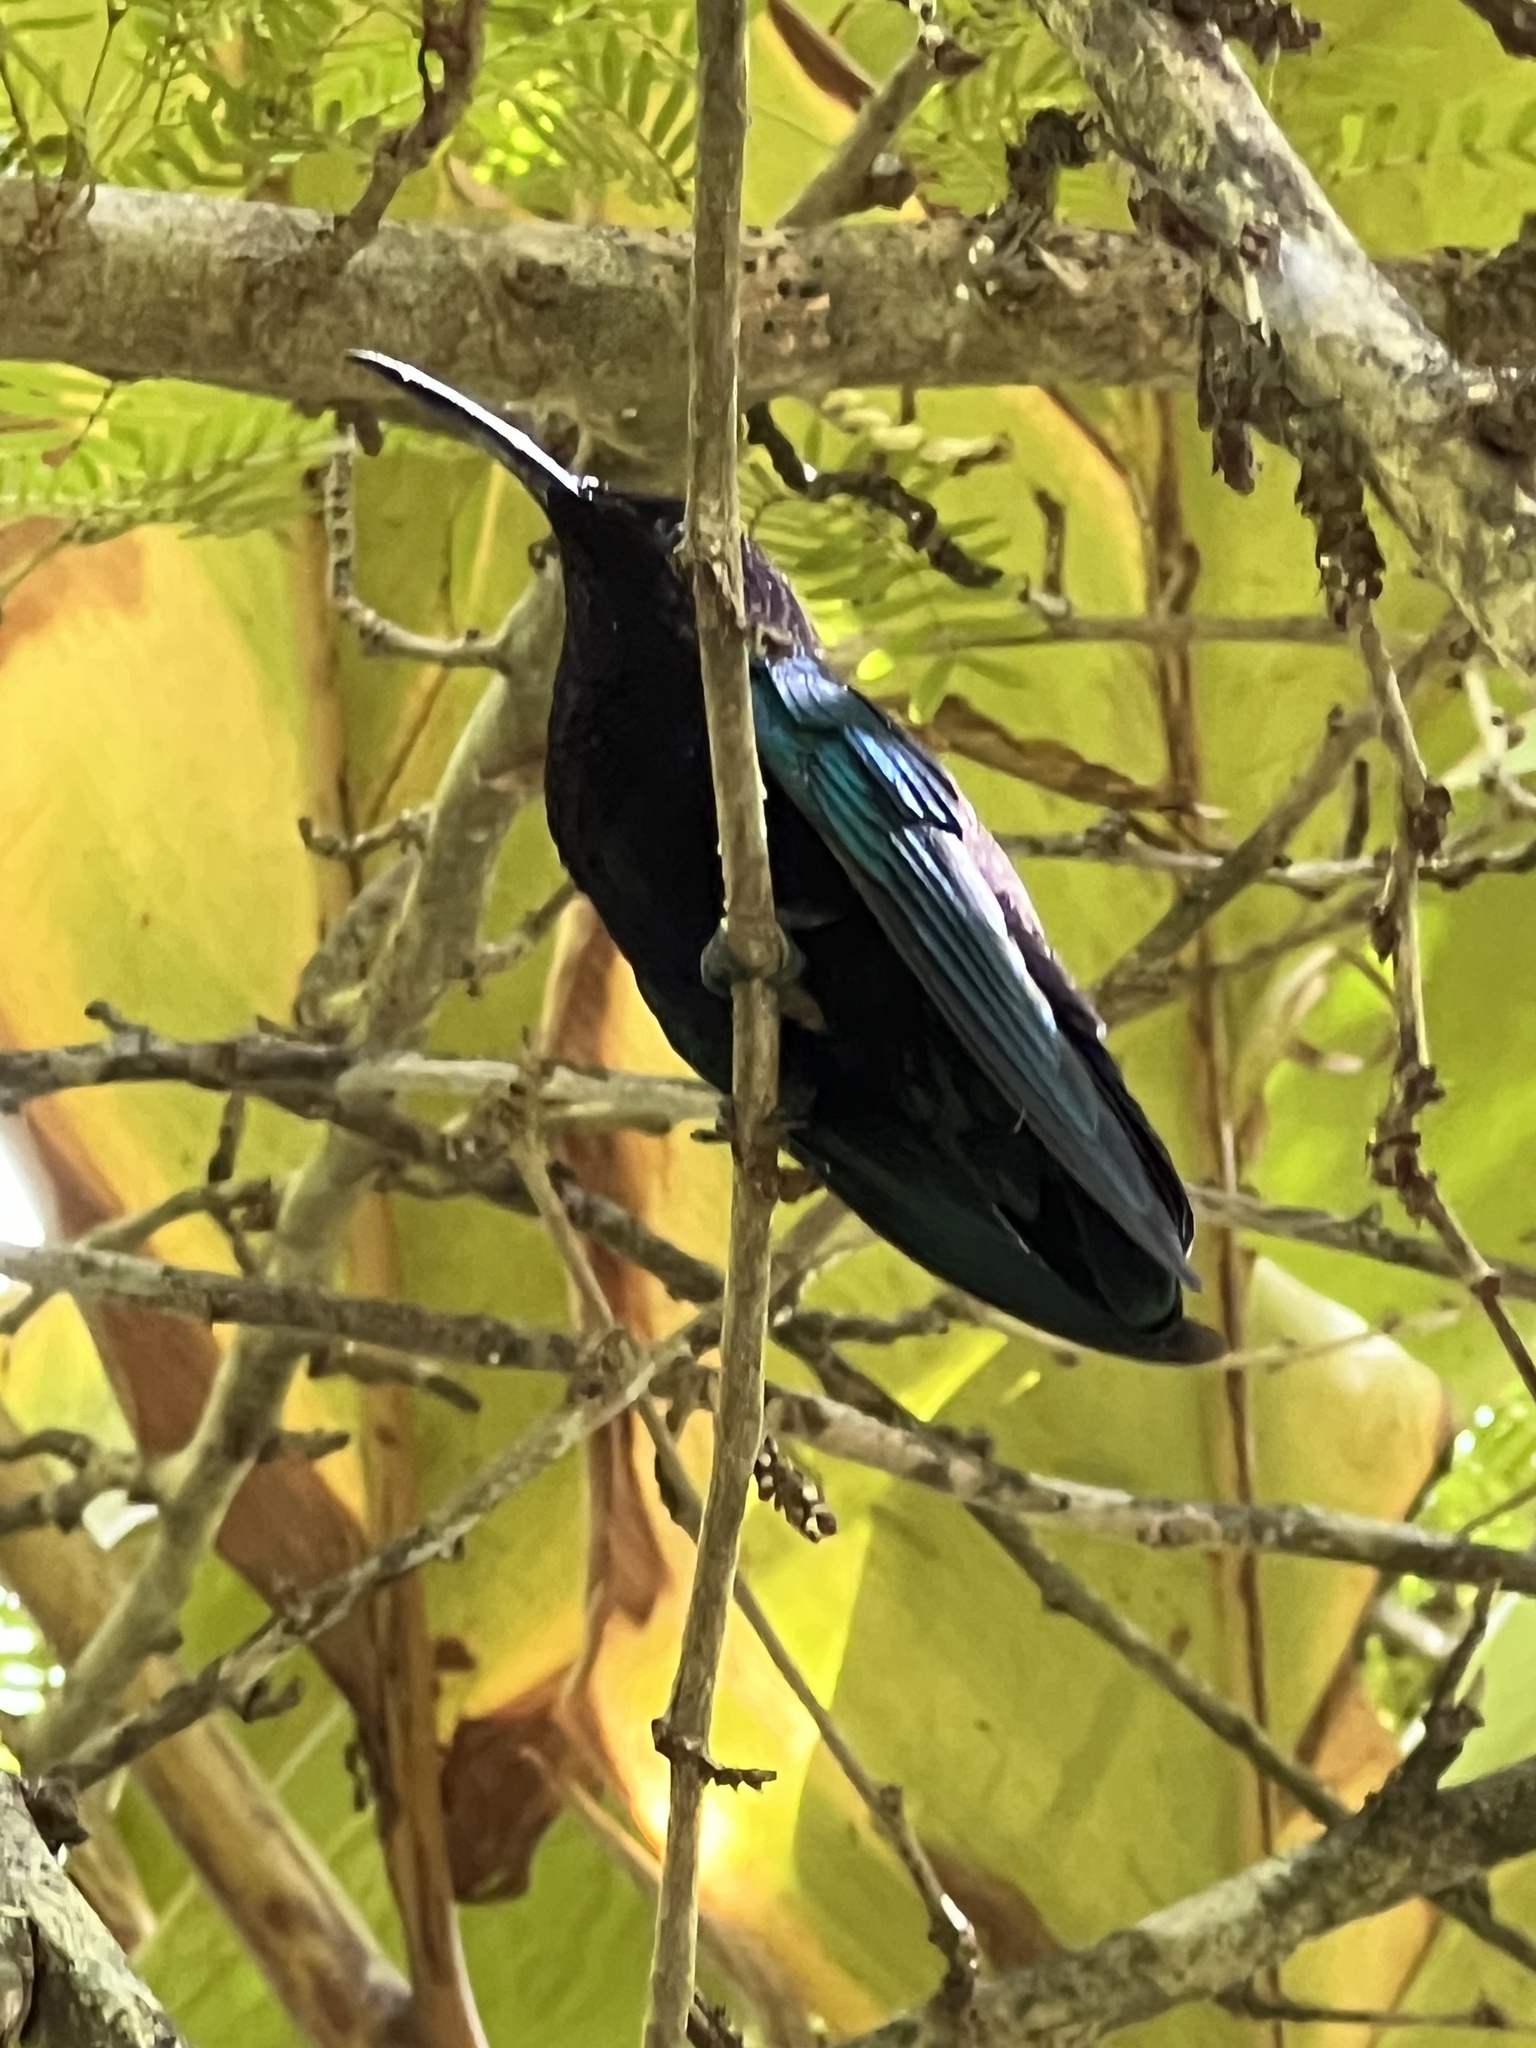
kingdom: Animalia
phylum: Chordata
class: Aves
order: Apodiformes
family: Trochilidae
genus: Eulampis
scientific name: Eulampis jugularis
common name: Purple-throated carib
